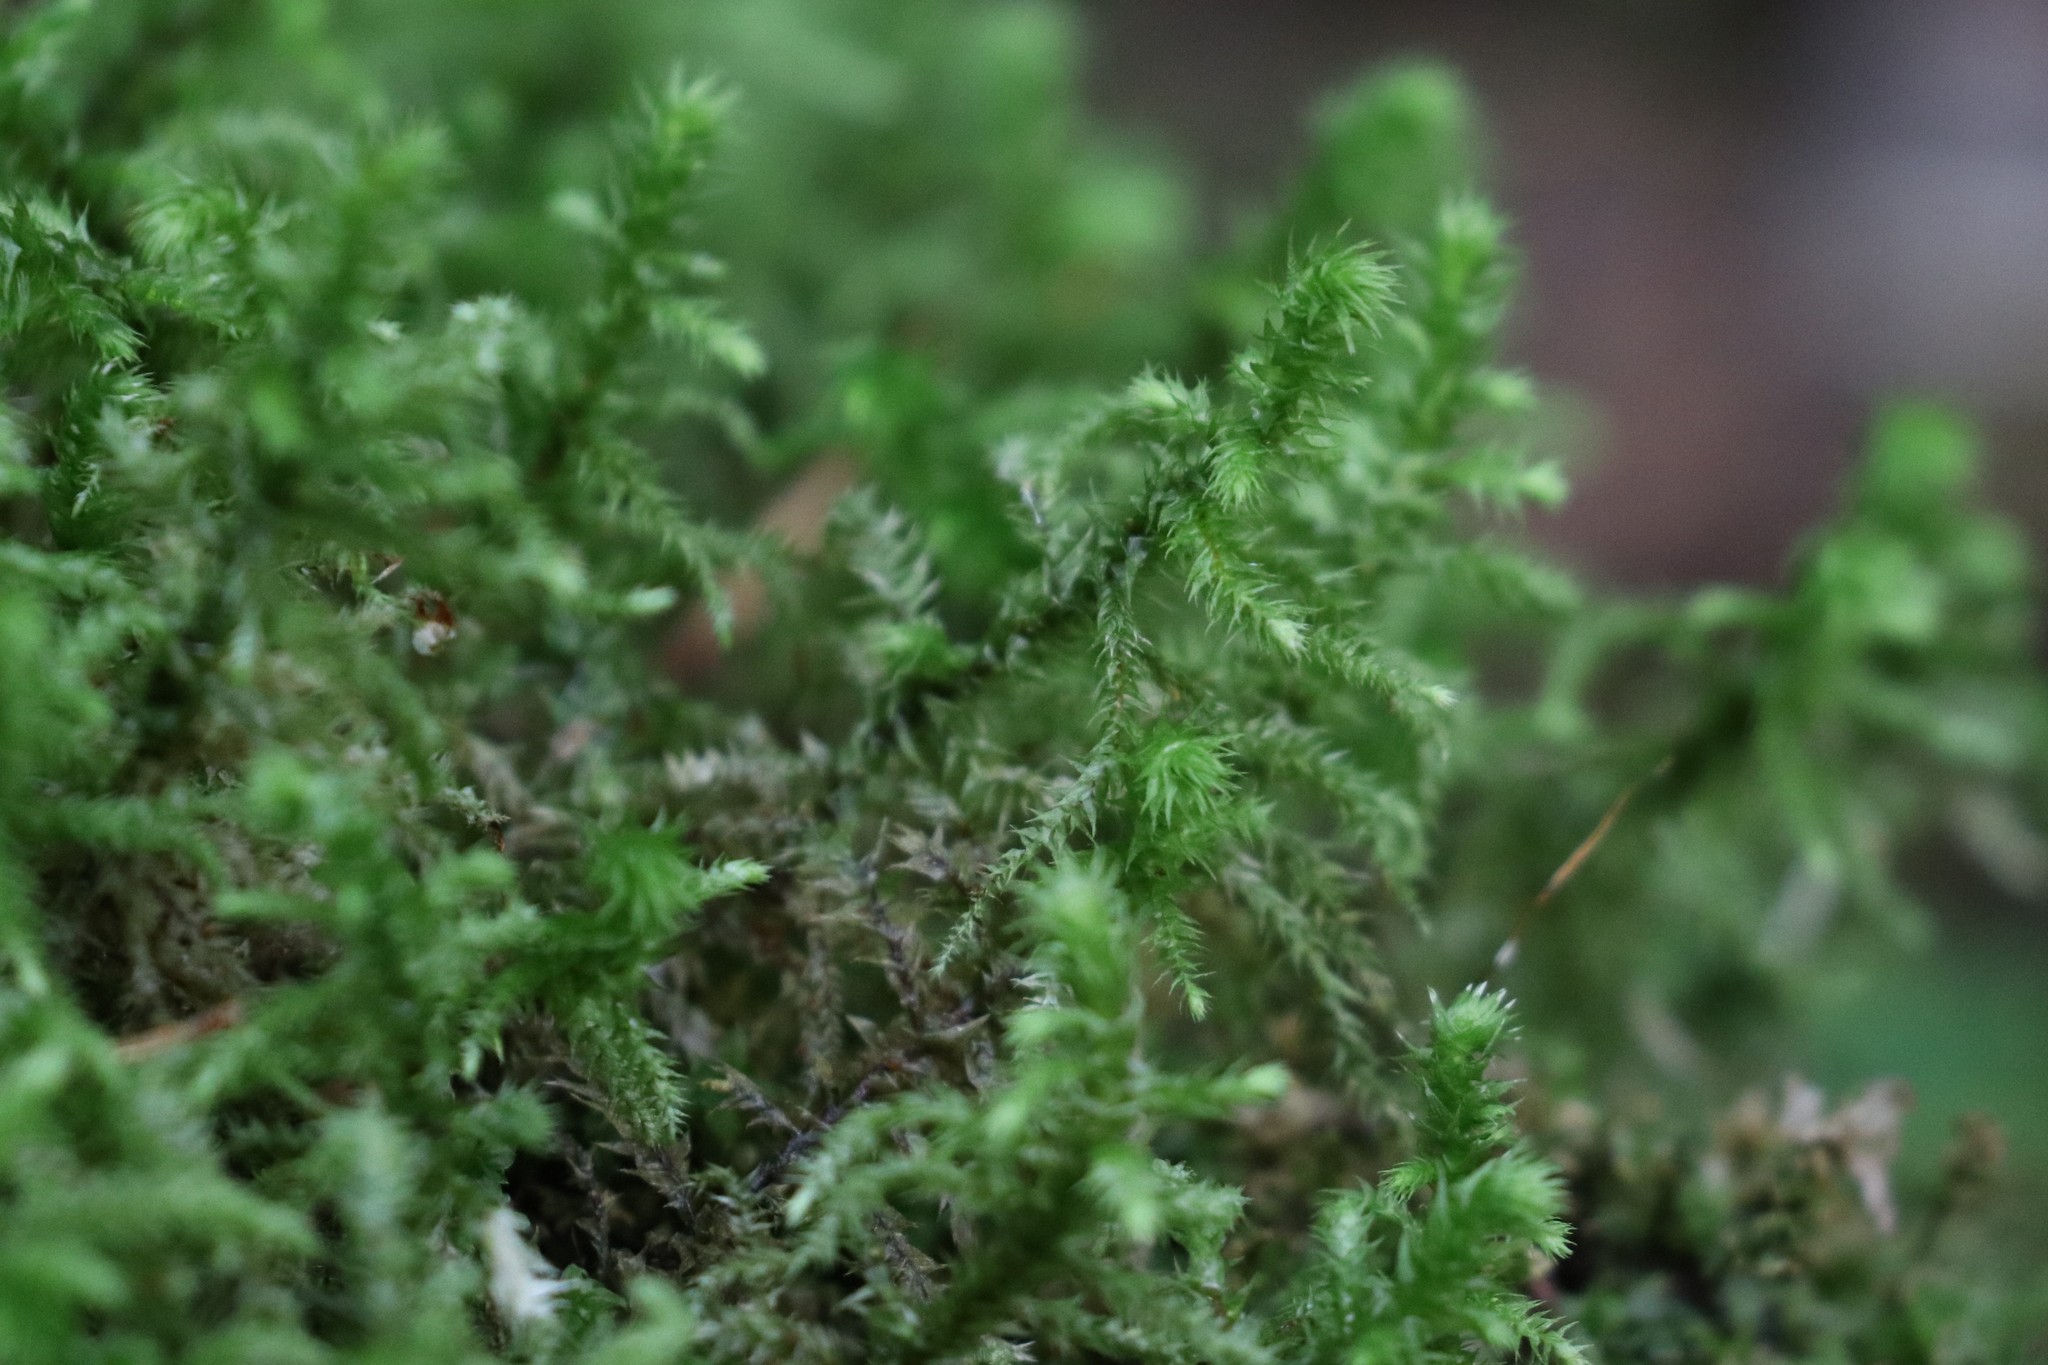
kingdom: Plantae
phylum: Bryophyta
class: Bryopsida
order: Hypnales
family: Hylocomiaceae
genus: Hylocomiadelphus
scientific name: Hylocomiadelphus triquetrus
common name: Rough goose neck moss
